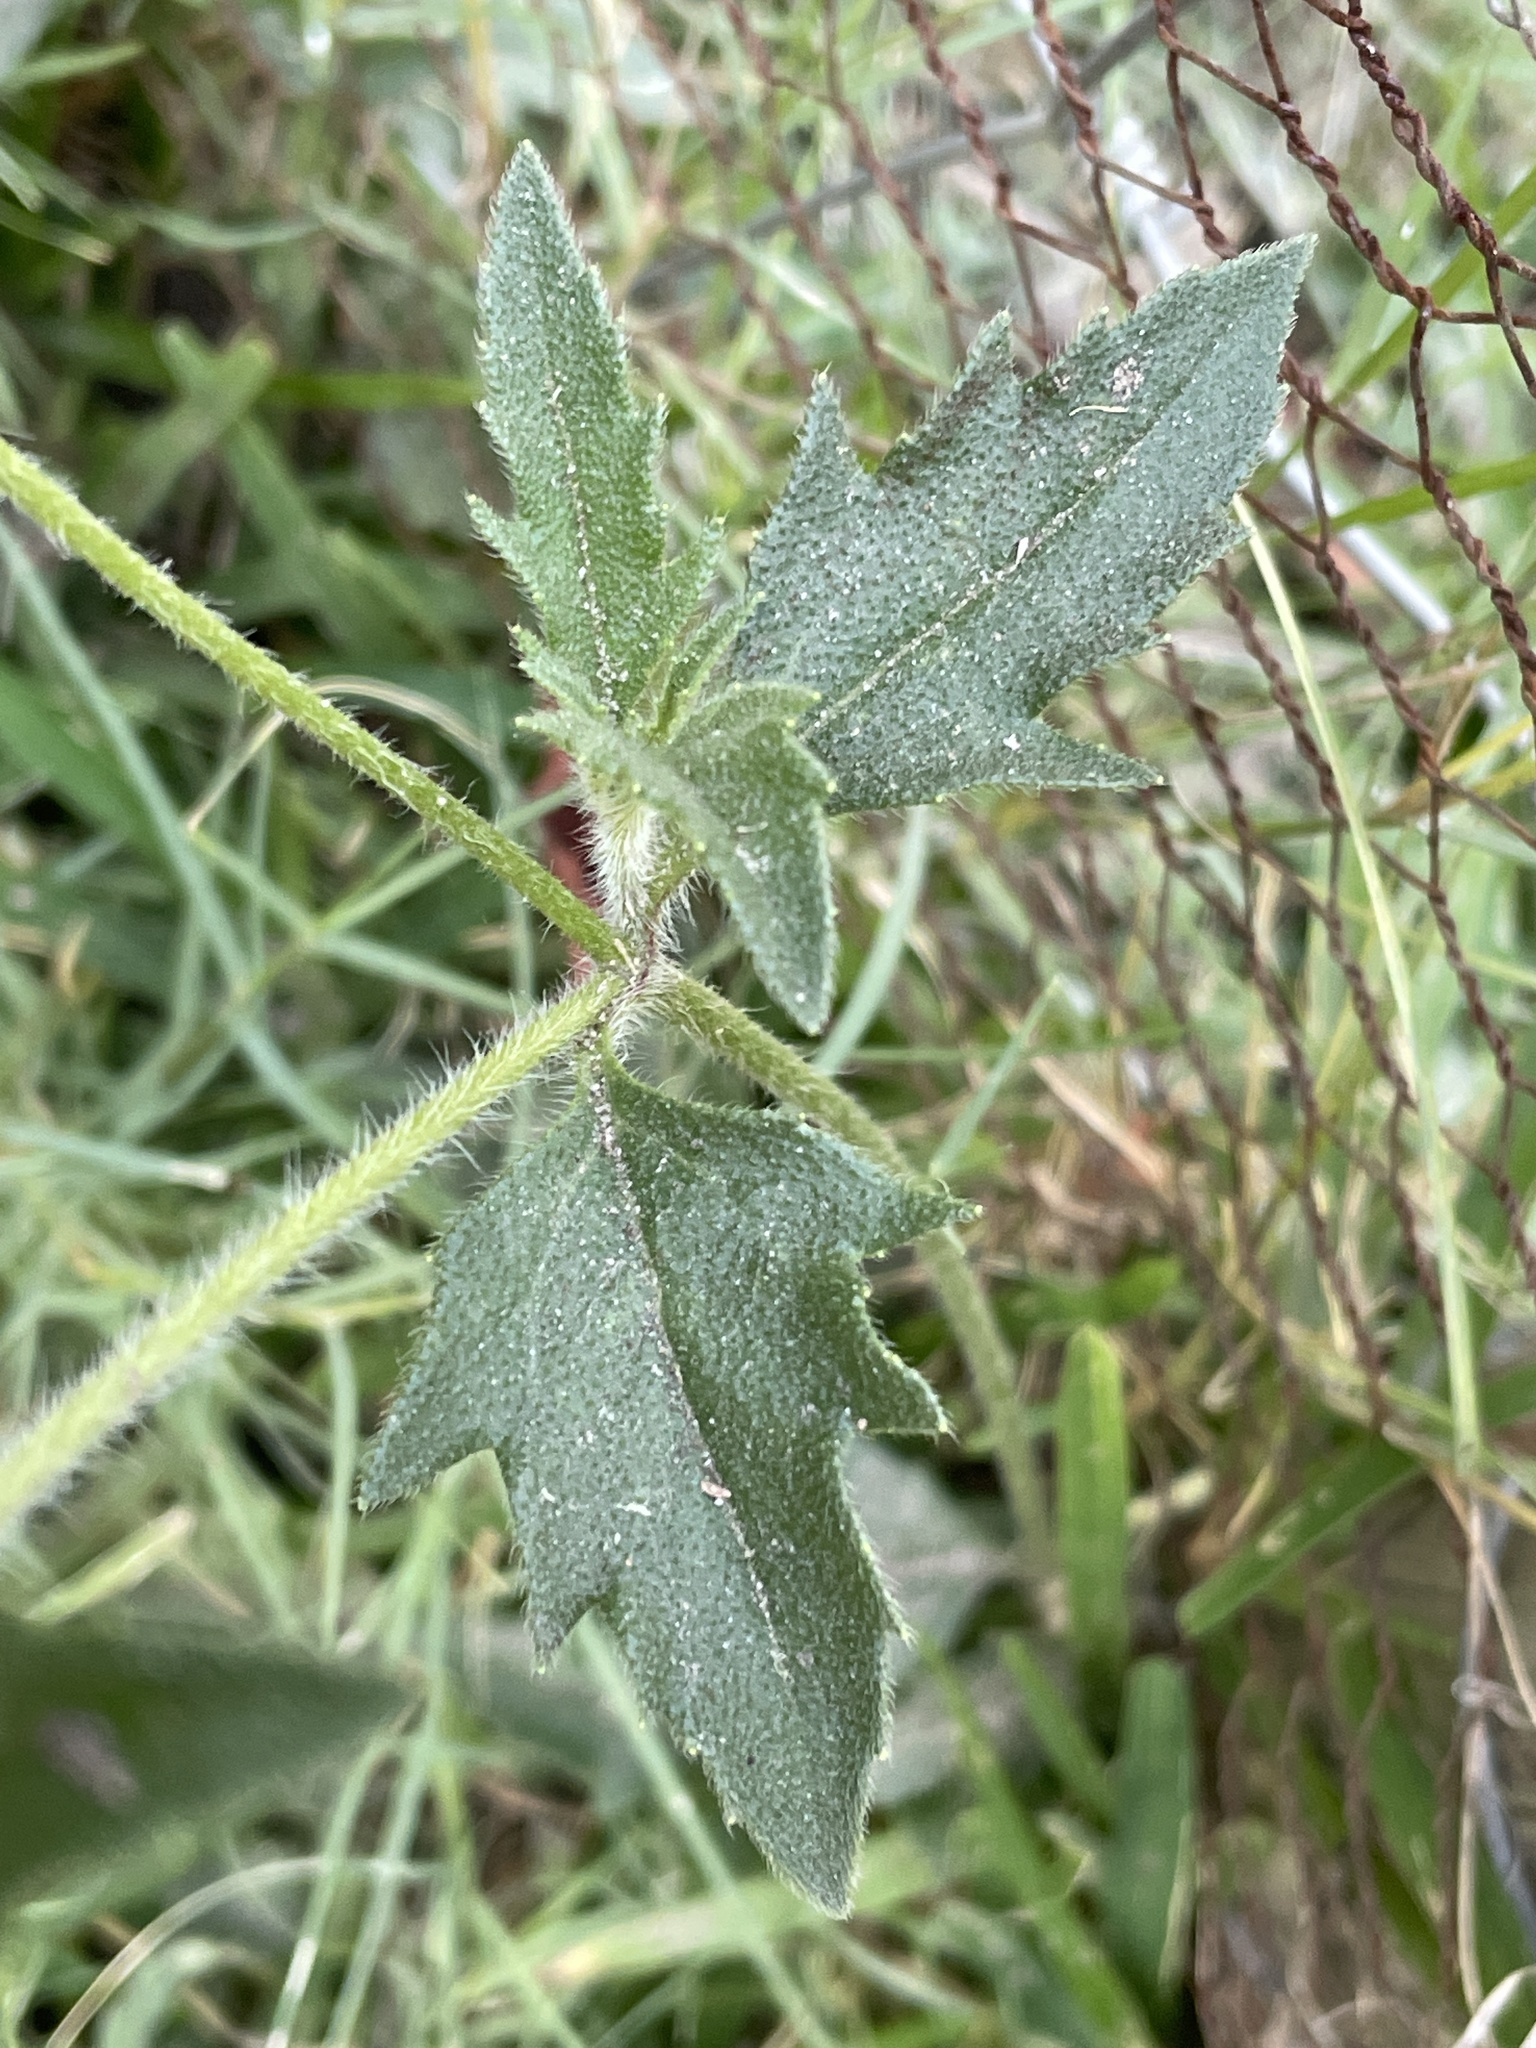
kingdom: Plantae
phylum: Tracheophyta
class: Magnoliopsida
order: Asterales
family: Asteraceae
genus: Tridax
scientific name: Tridax procumbens
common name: Coatbuttons
